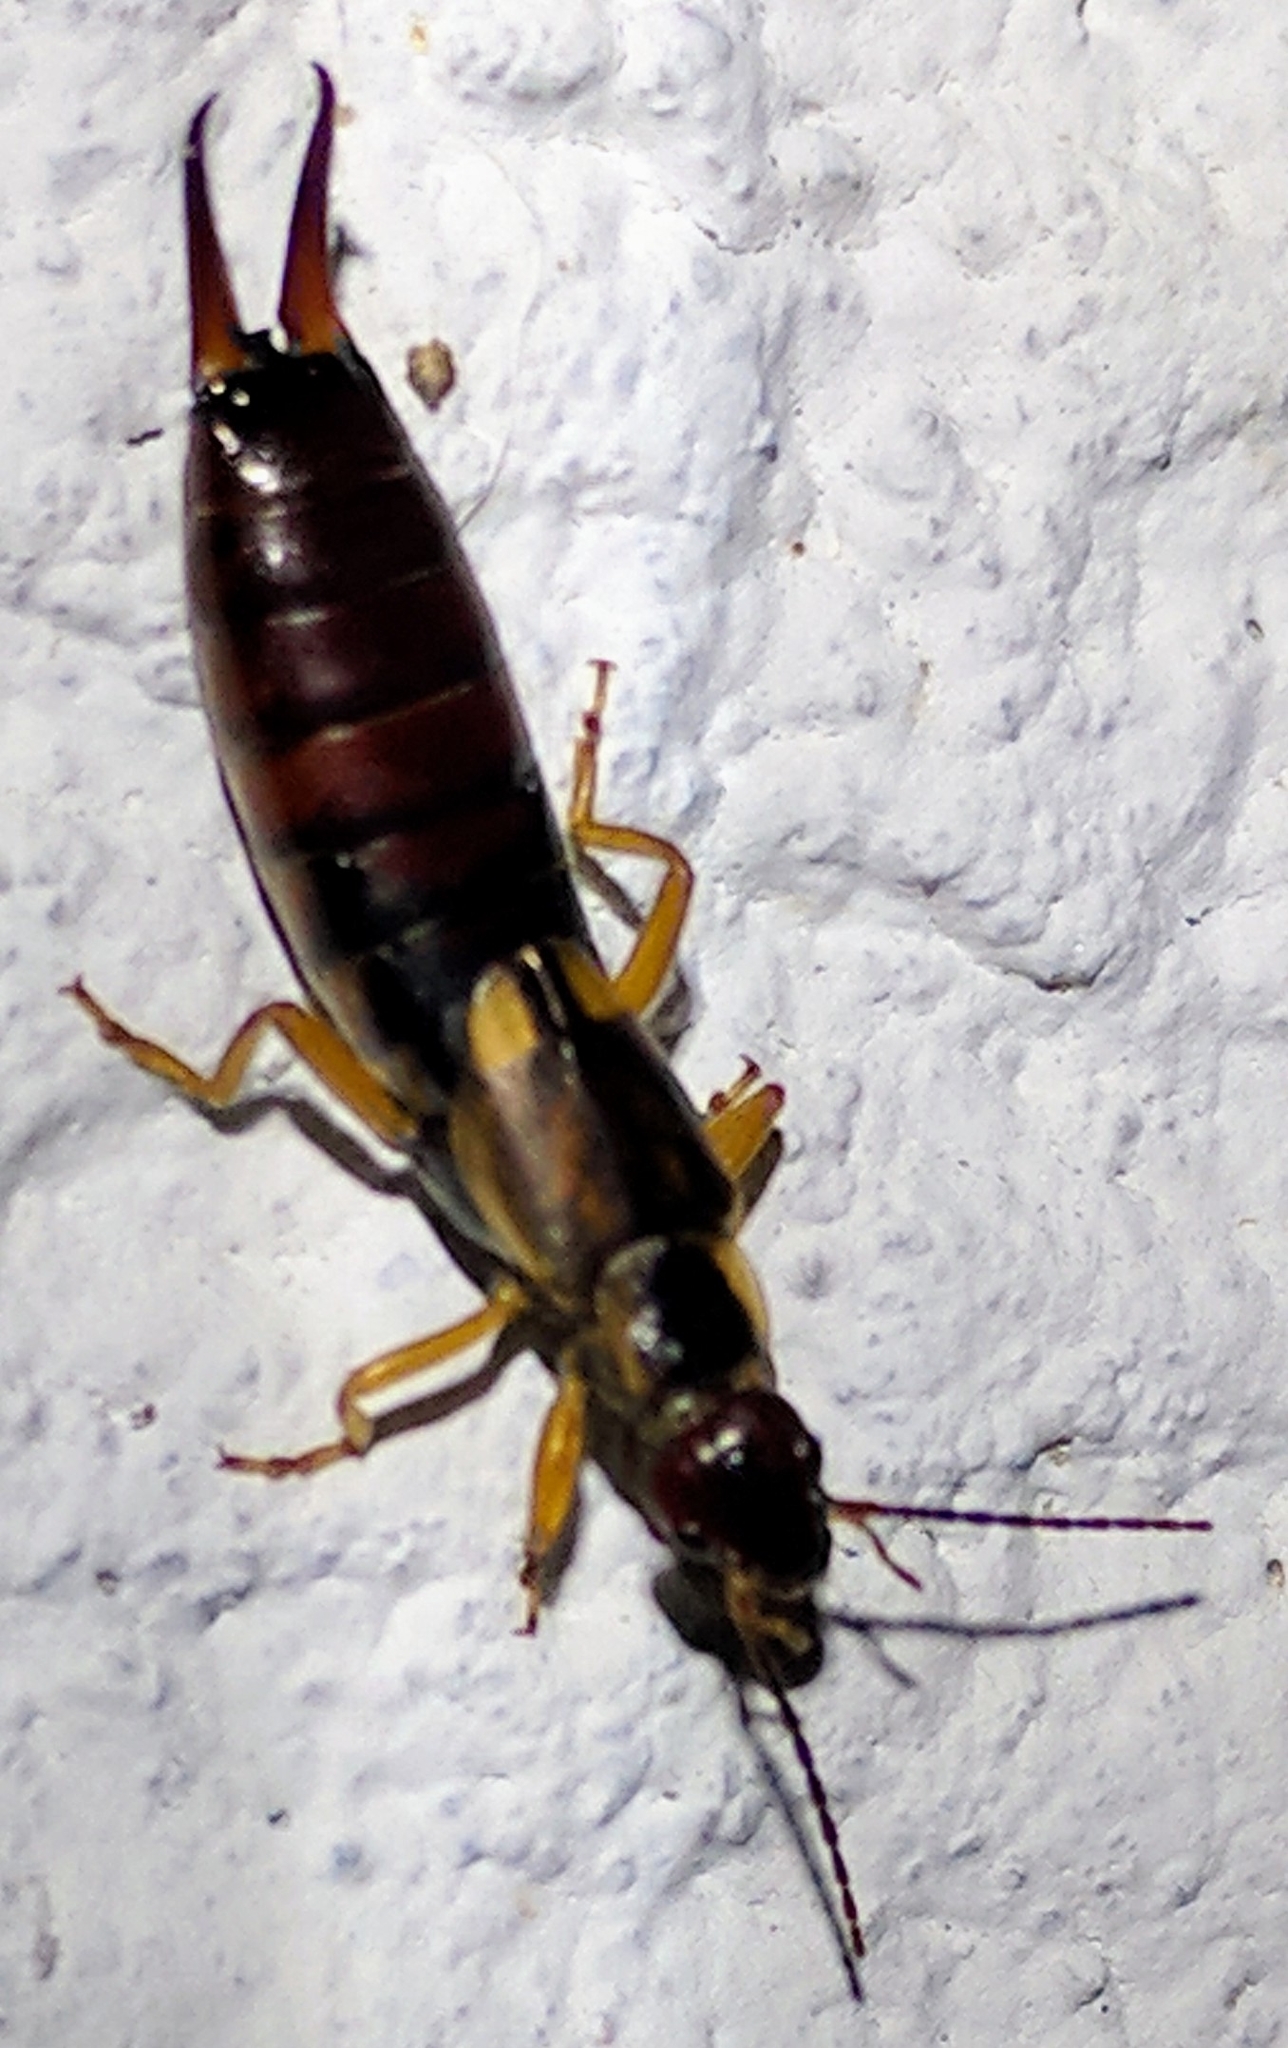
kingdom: Animalia
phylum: Arthropoda
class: Insecta
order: Dermaptera
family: Forficulidae
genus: Forficula
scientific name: Forficula
